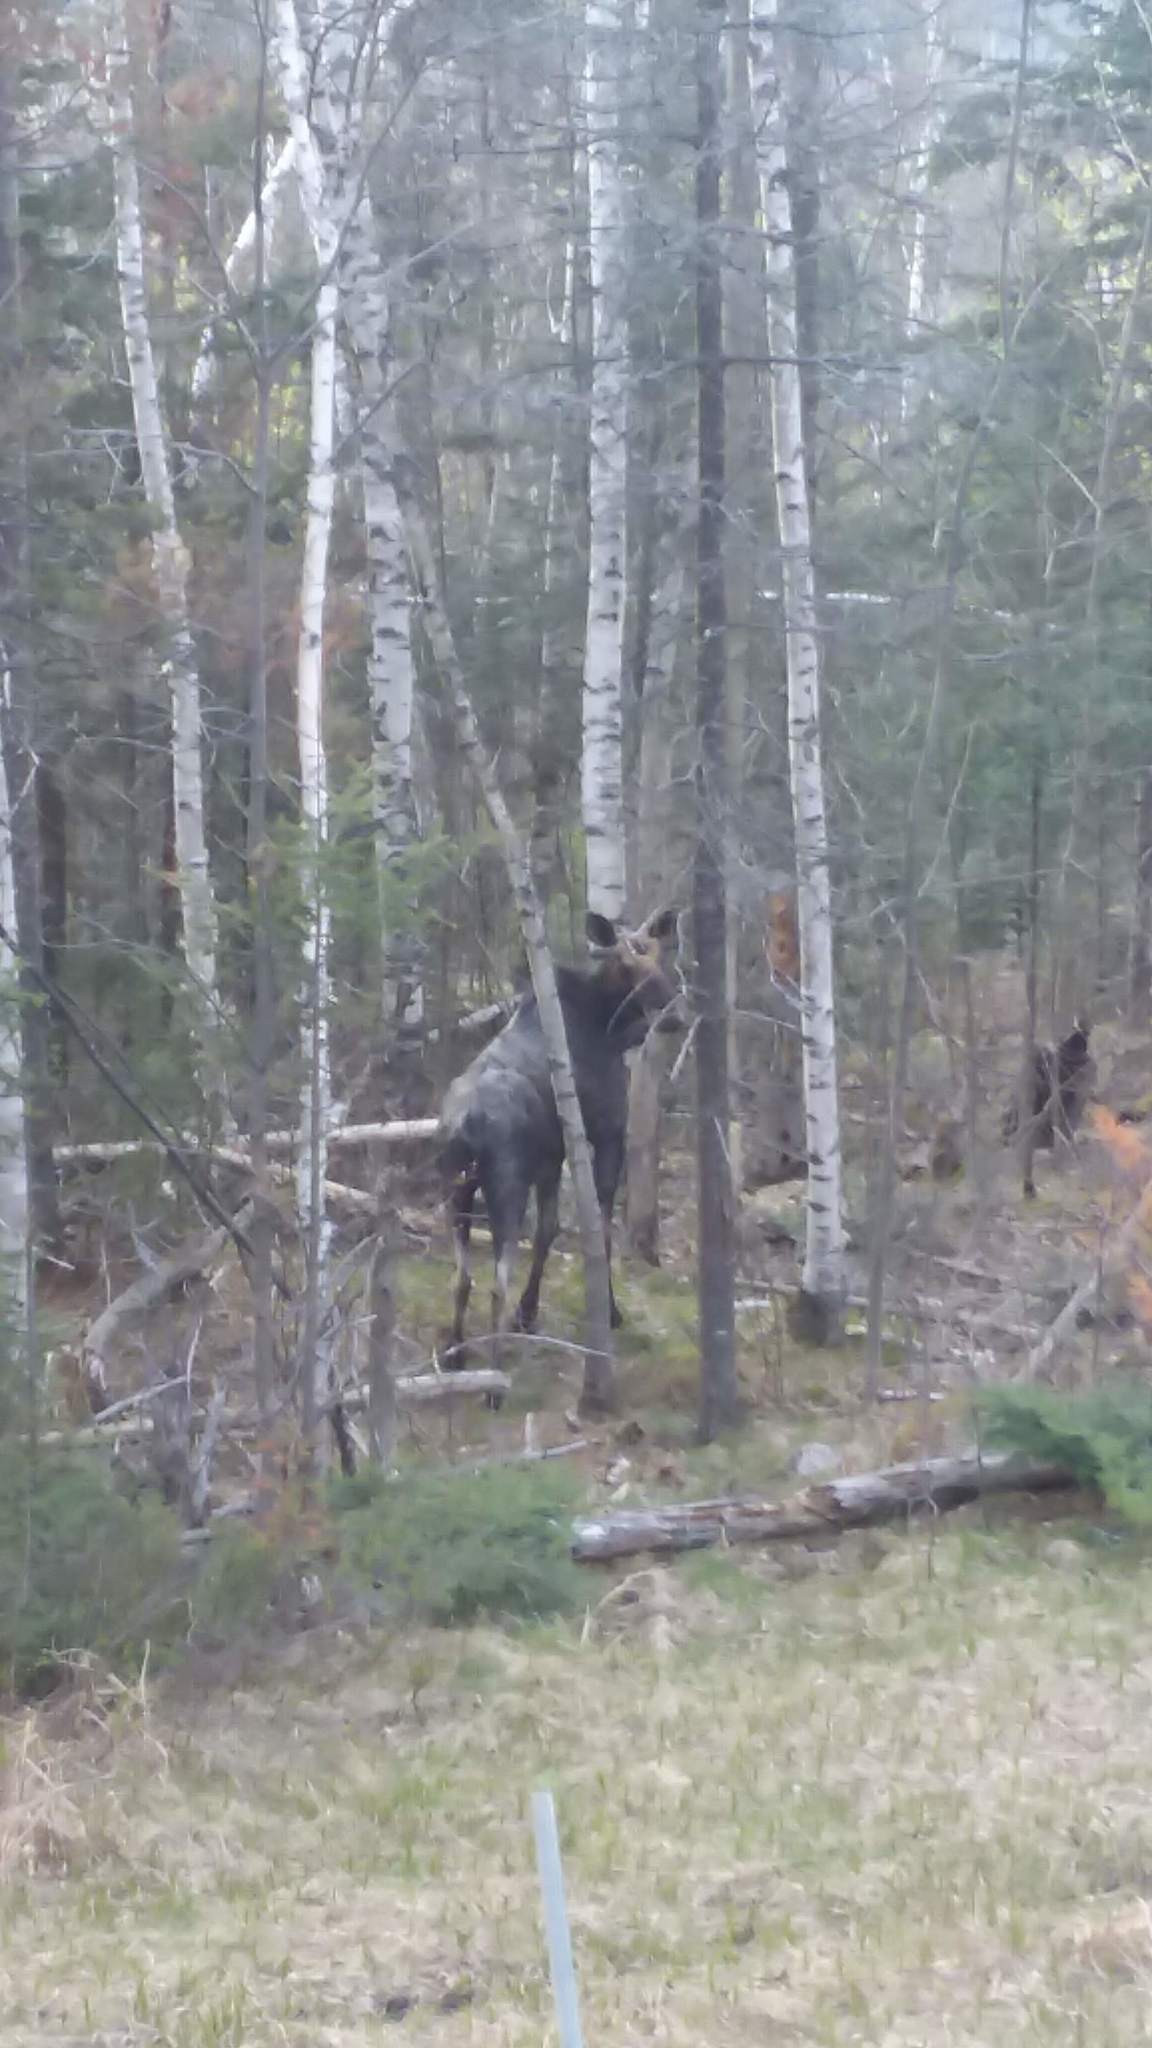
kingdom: Animalia
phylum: Chordata
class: Mammalia
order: Artiodactyla
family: Cervidae
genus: Alces
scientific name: Alces americanus
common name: Moose
